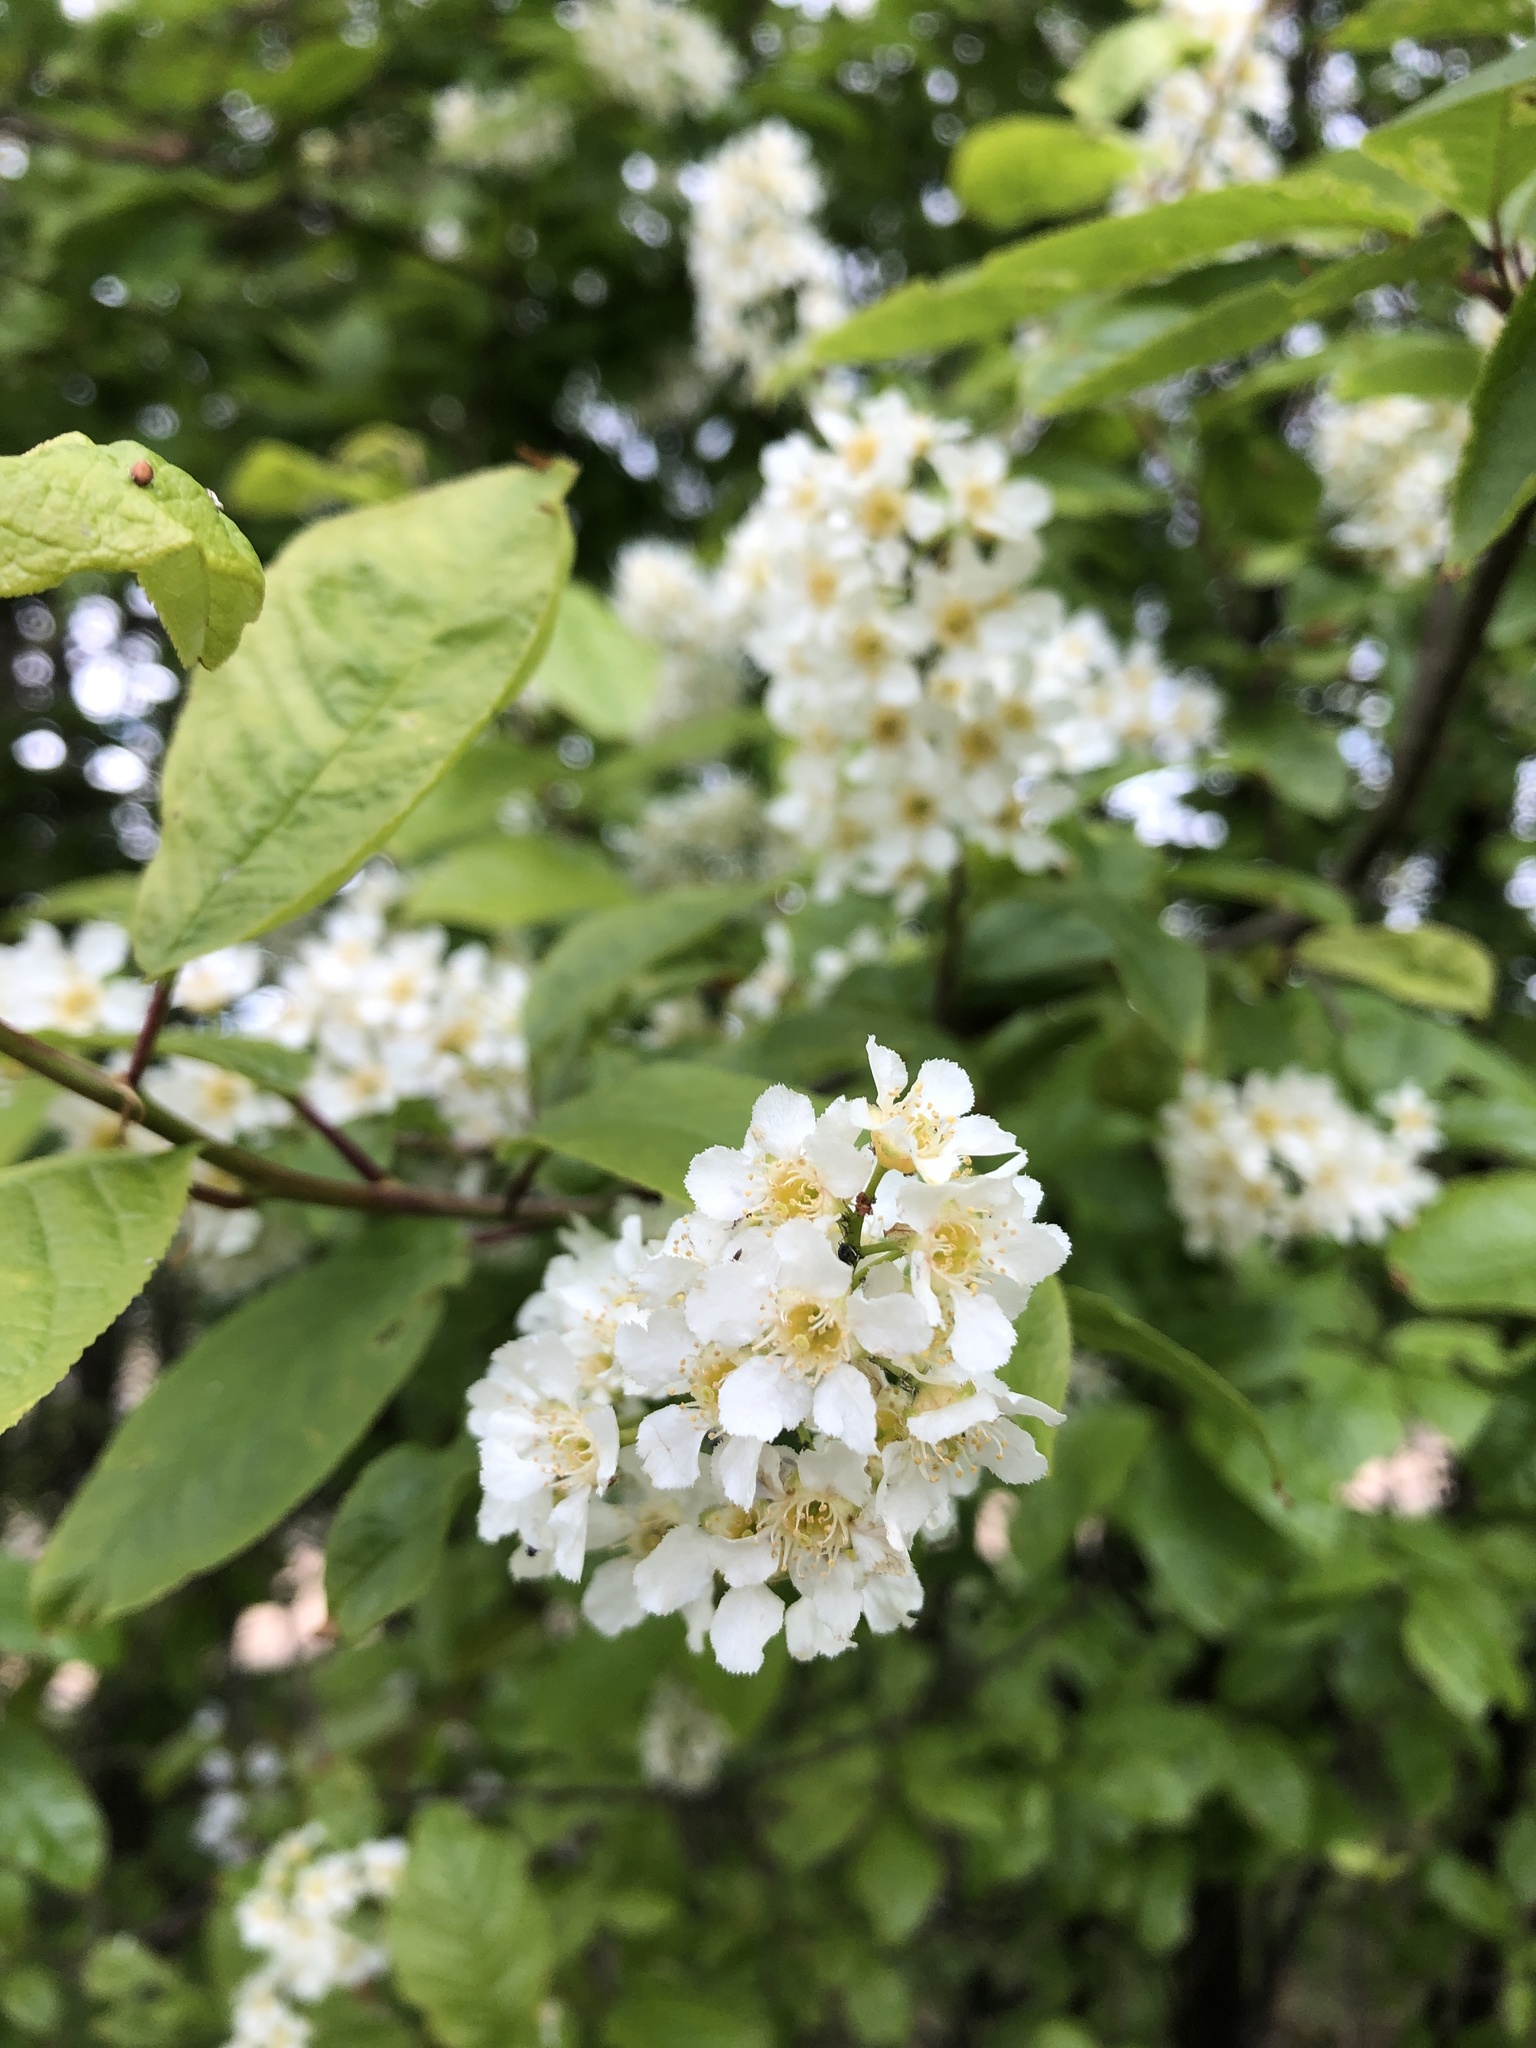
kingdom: Plantae
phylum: Tracheophyta
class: Magnoliopsida
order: Rosales
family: Rosaceae
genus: Prunus
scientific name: Prunus padus
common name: Bird cherry
